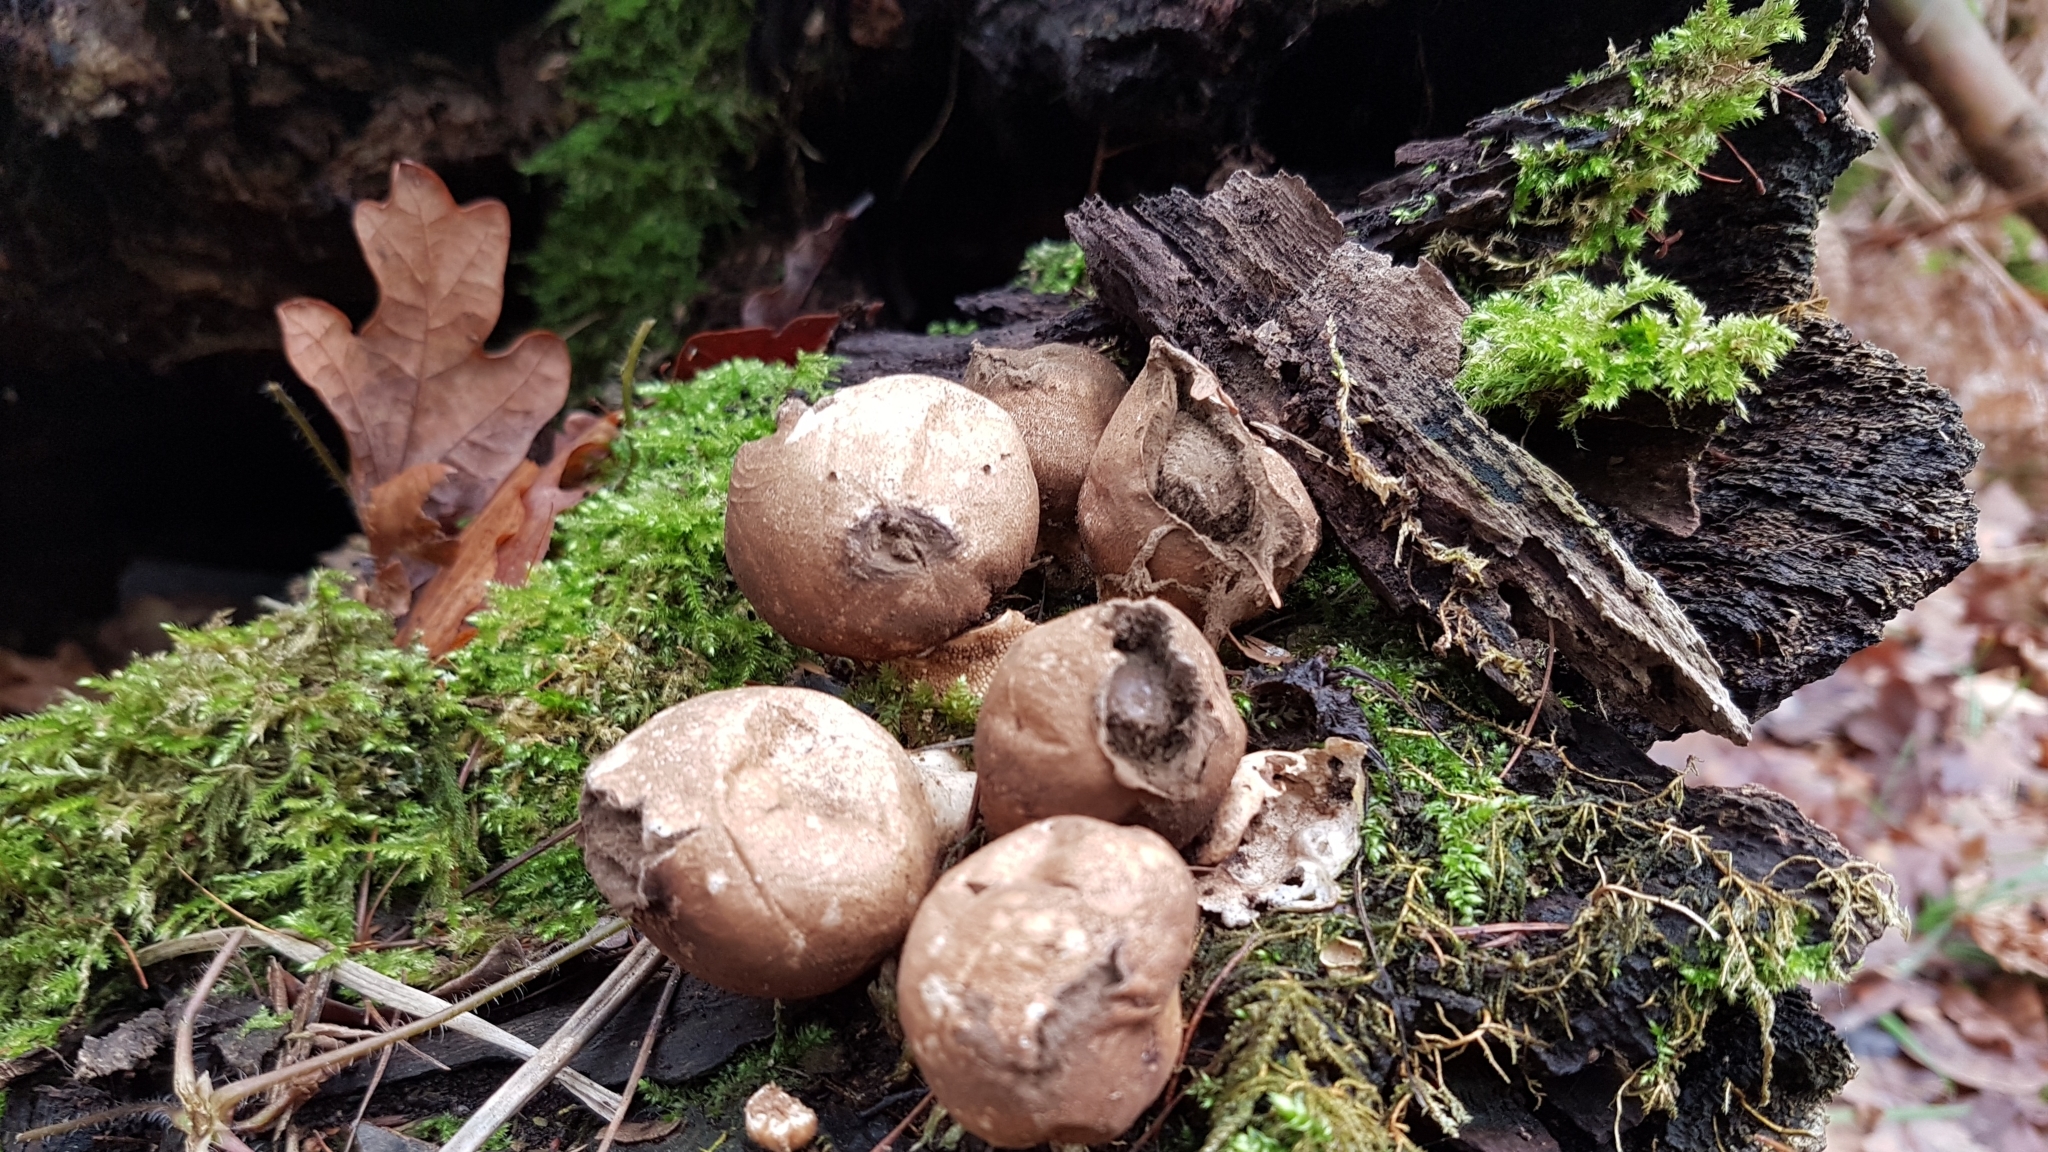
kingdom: Fungi
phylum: Basidiomycota
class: Agaricomycetes
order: Agaricales
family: Lycoperdaceae
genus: Apioperdon
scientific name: Apioperdon pyriforme
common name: Pear-shaped puffball
